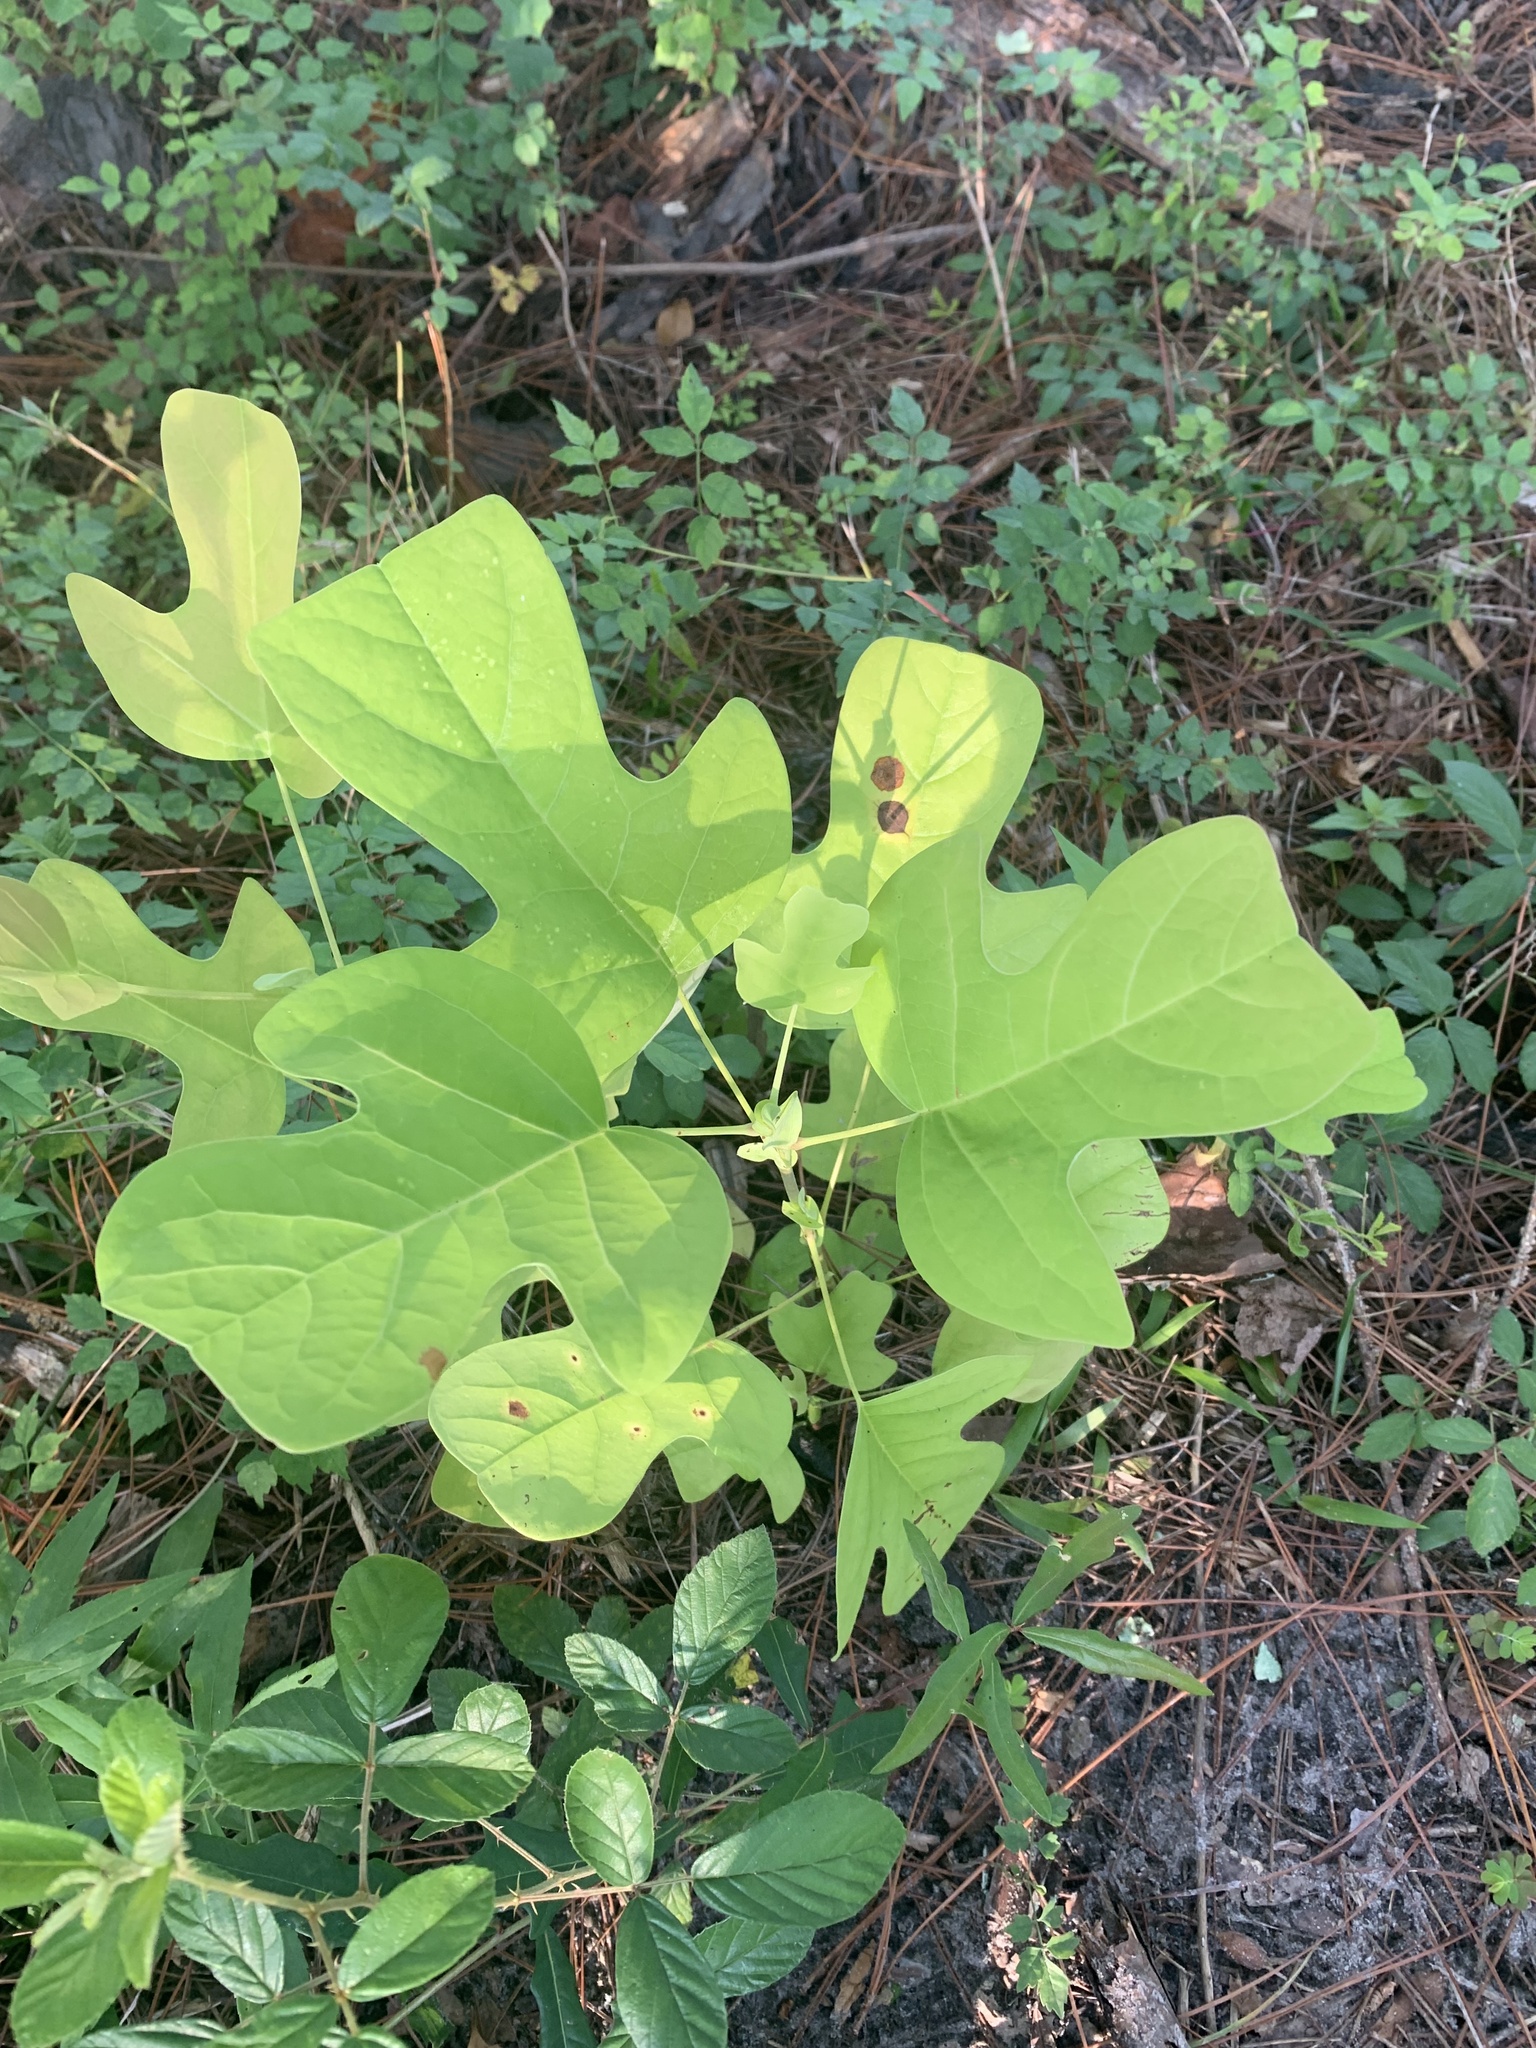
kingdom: Plantae
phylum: Tracheophyta
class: Magnoliopsida
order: Magnoliales
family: Magnoliaceae
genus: Liriodendron
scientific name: Liriodendron tulipifera
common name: Tulip tree
